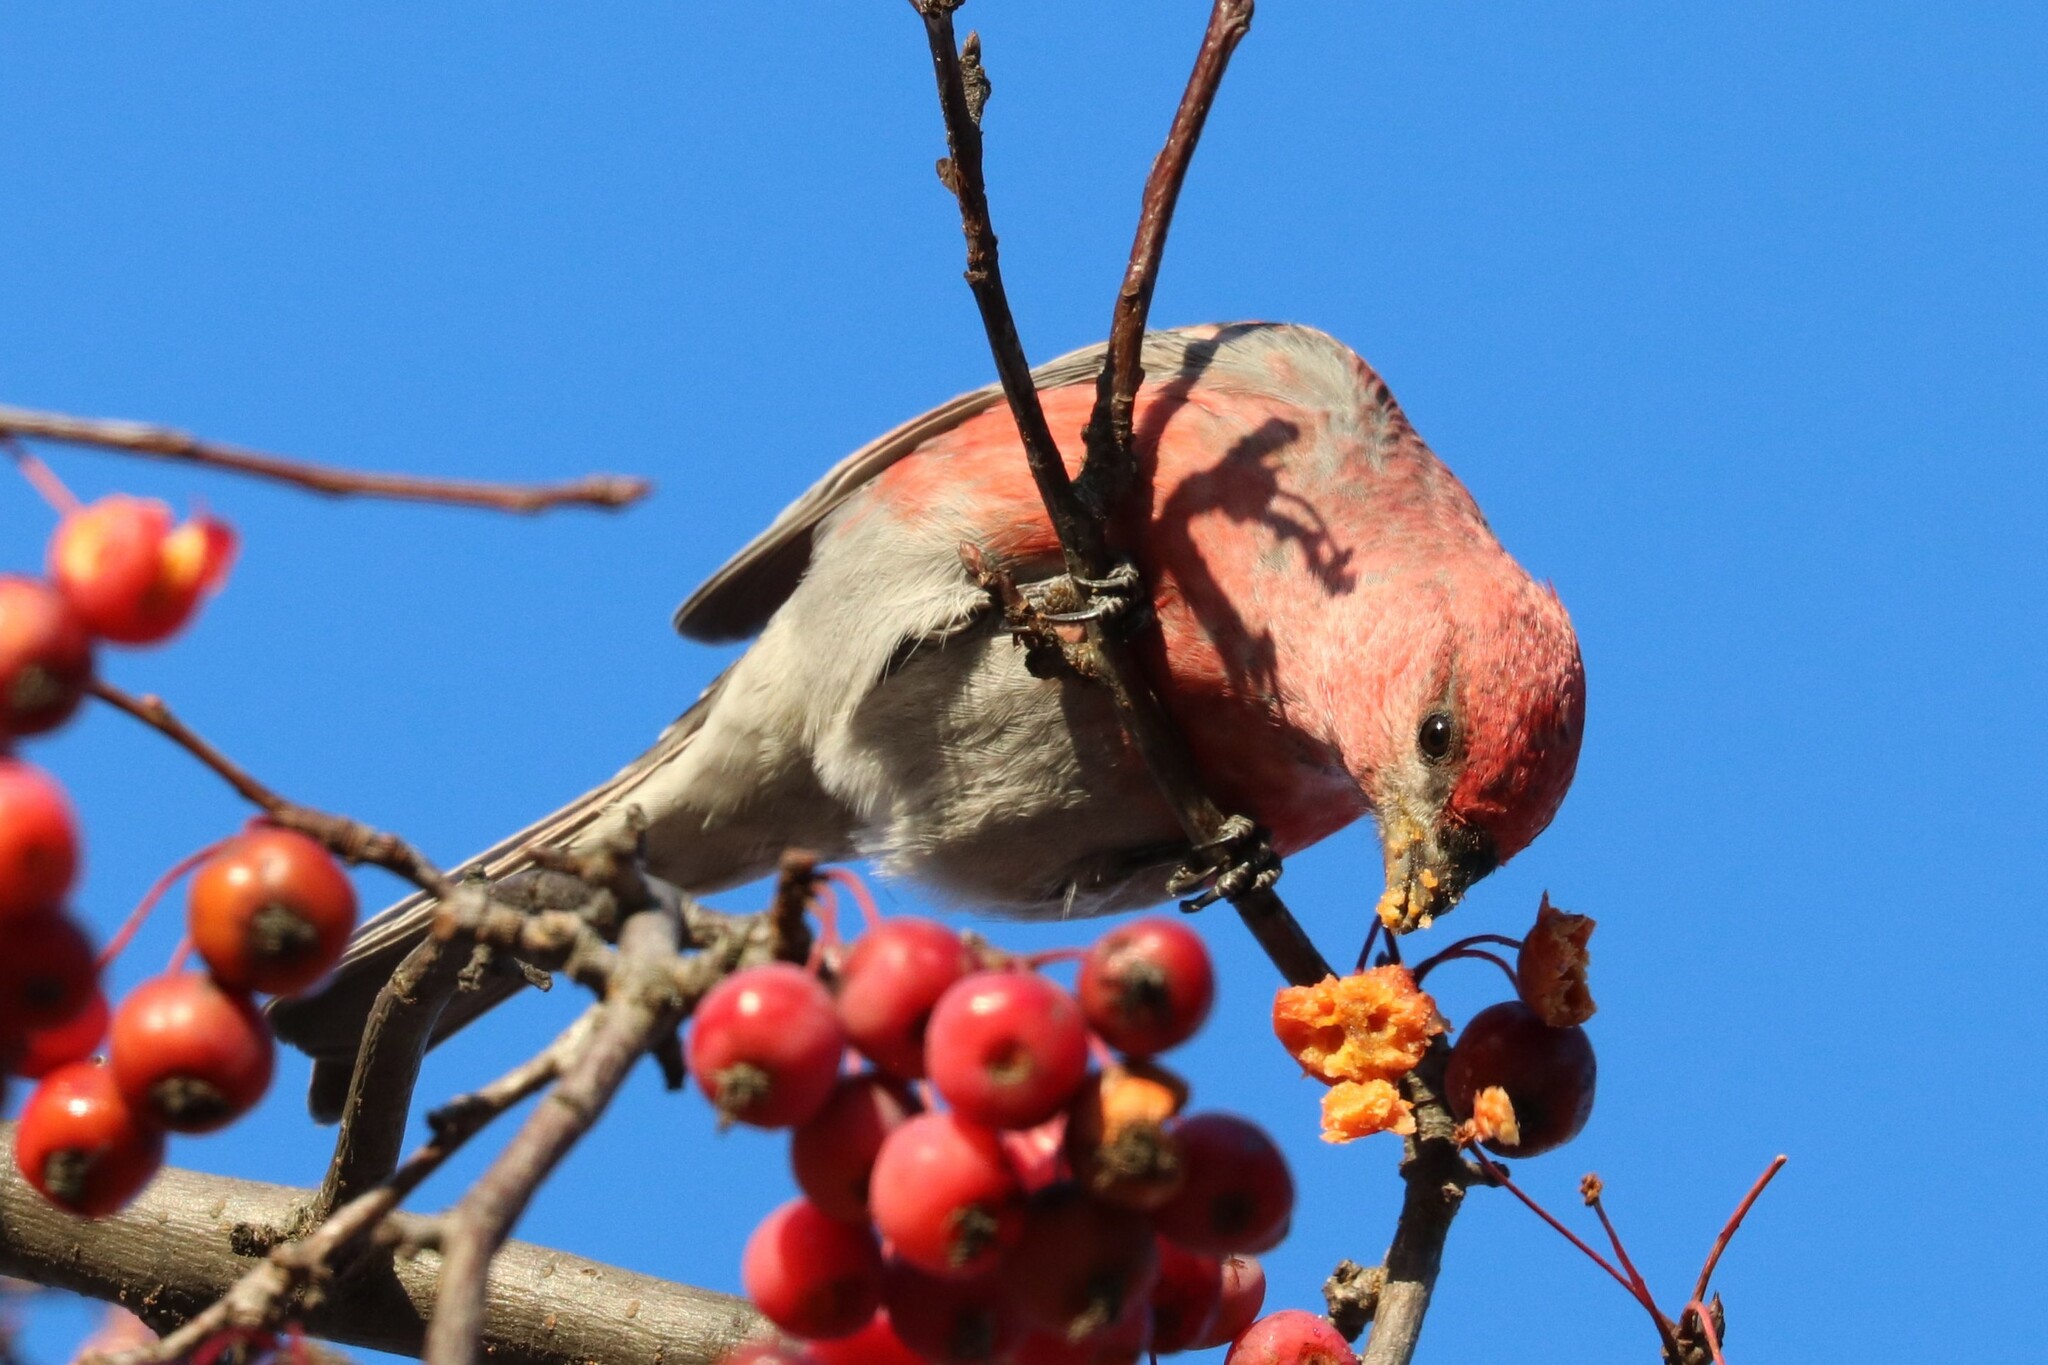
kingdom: Animalia
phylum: Chordata
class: Aves
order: Passeriformes
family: Fringillidae
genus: Pinicola
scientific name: Pinicola enucleator
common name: Pine grosbeak
